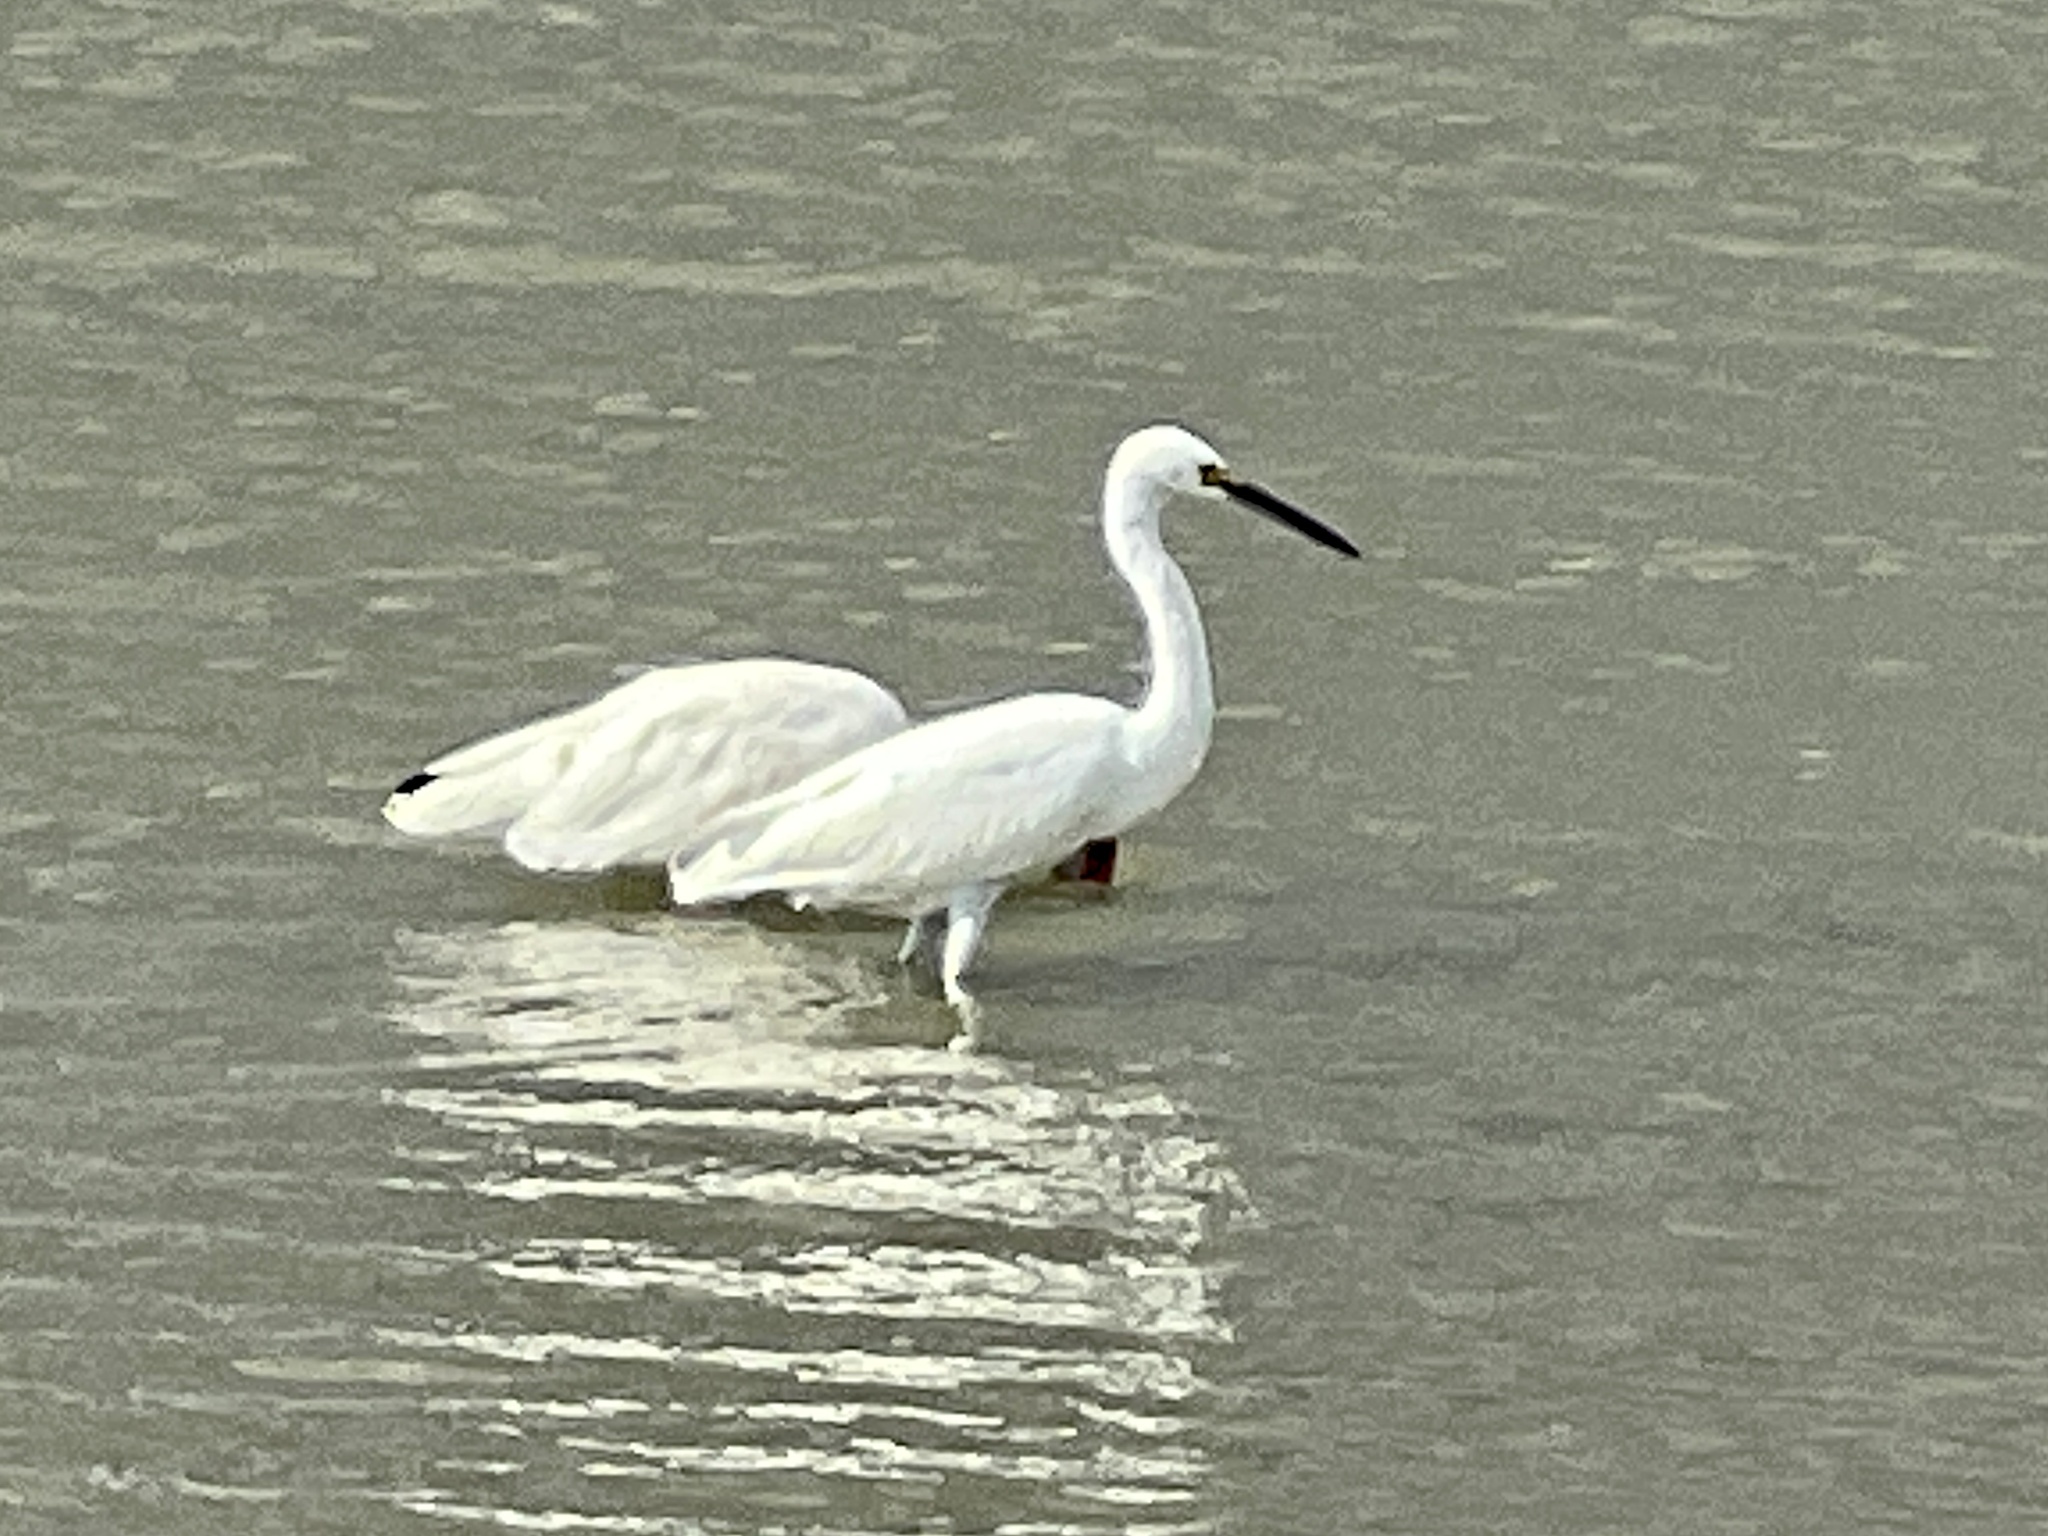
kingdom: Animalia
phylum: Chordata
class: Aves
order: Pelecaniformes
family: Ardeidae
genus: Egretta
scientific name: Egretta thula
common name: Snowy egret
